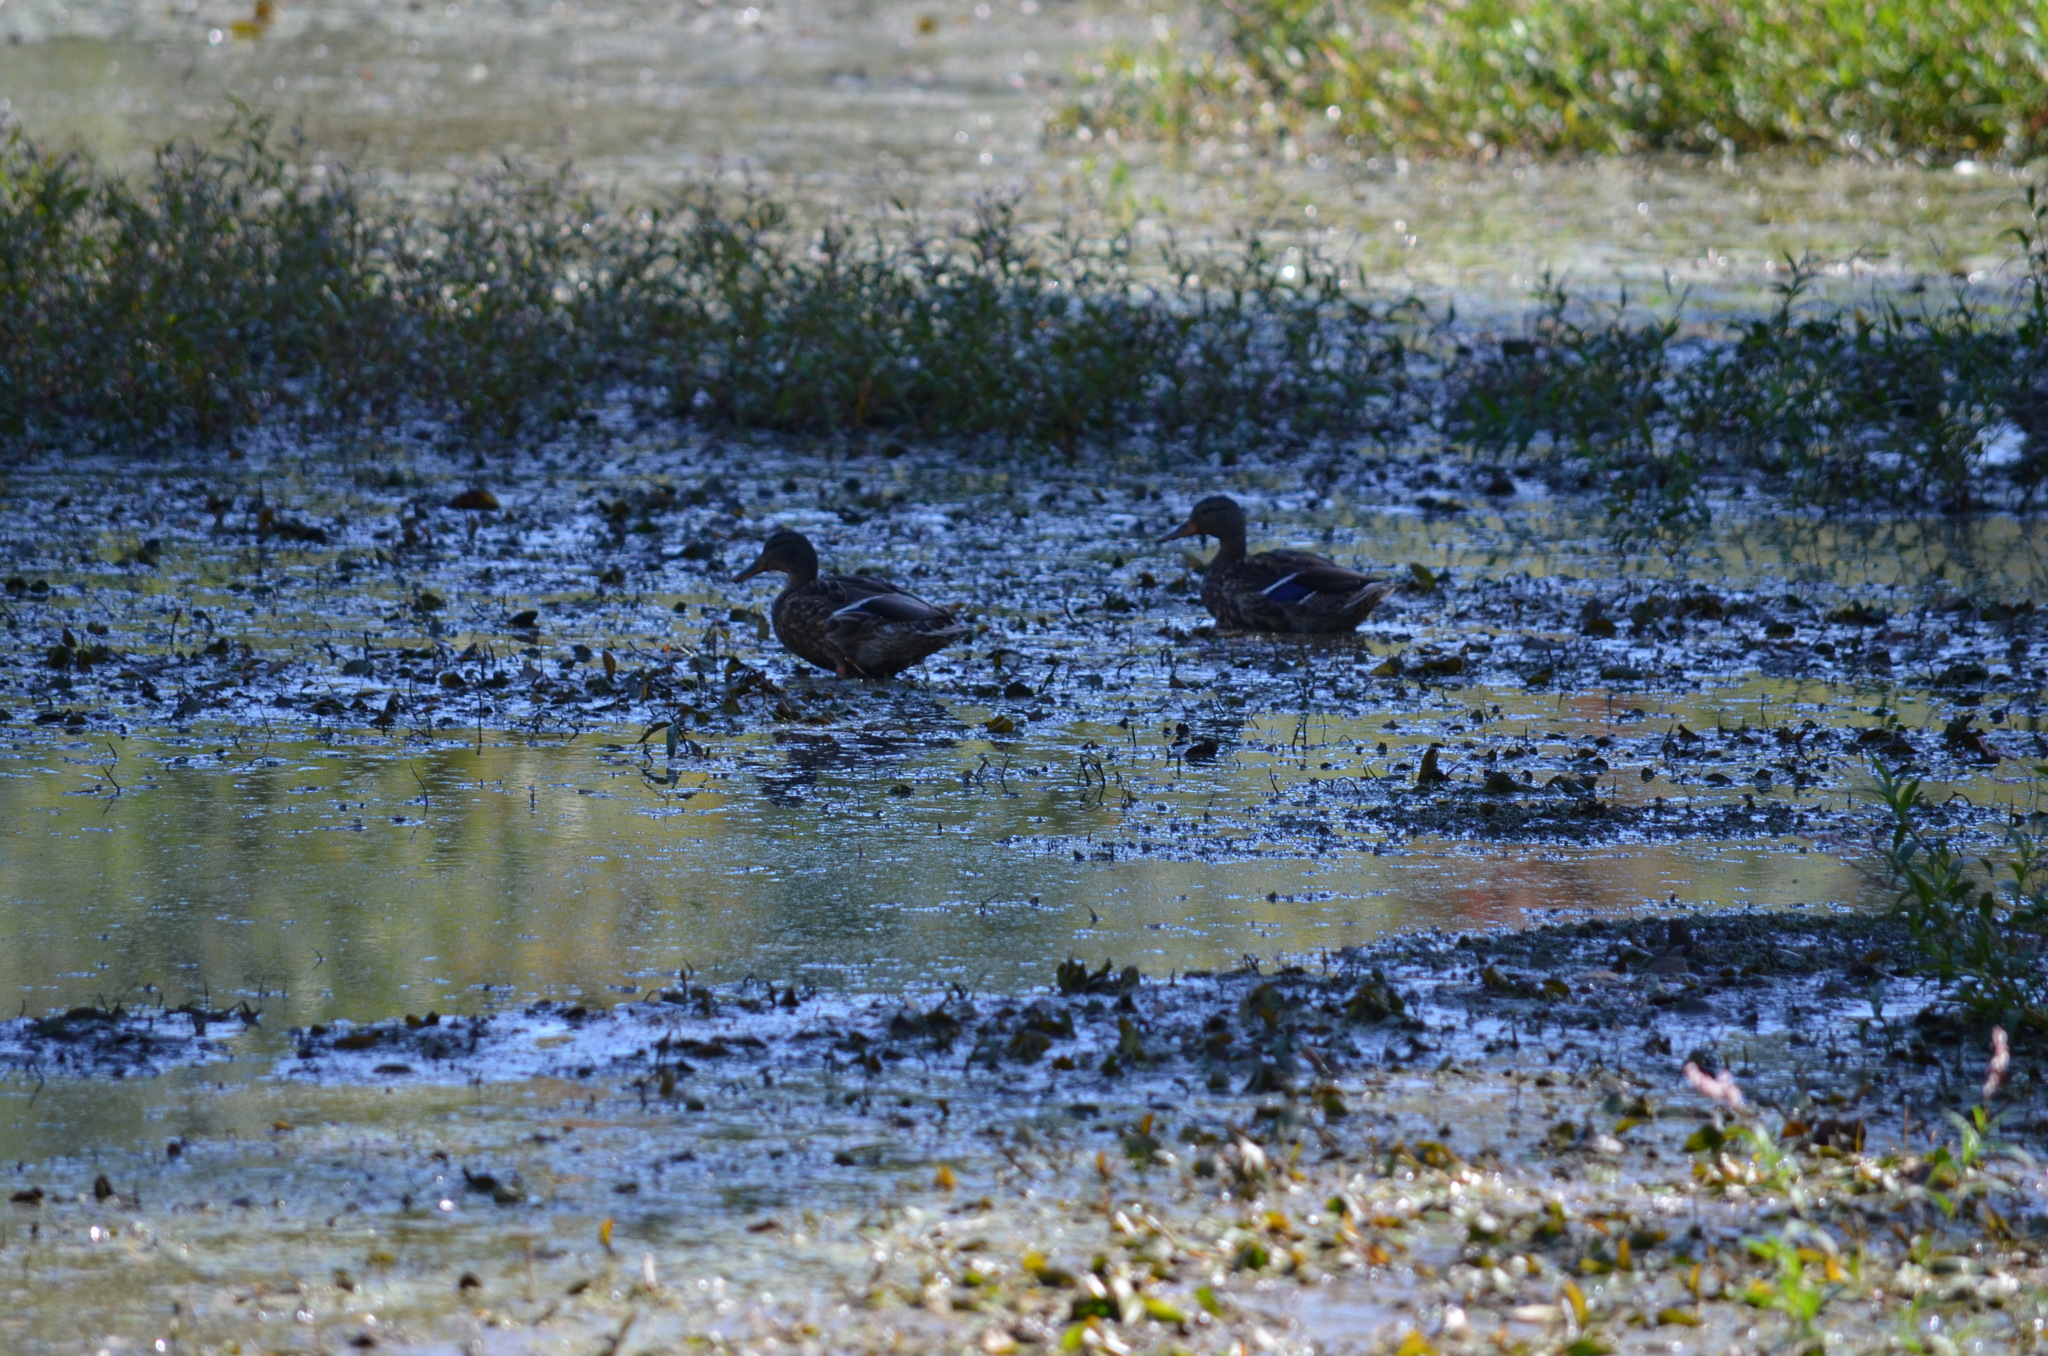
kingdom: Animalia
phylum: Chordata
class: Aves
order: Anseriformes
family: Anatidae
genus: Anas
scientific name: Anas platyrhynchos
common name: Mallard
